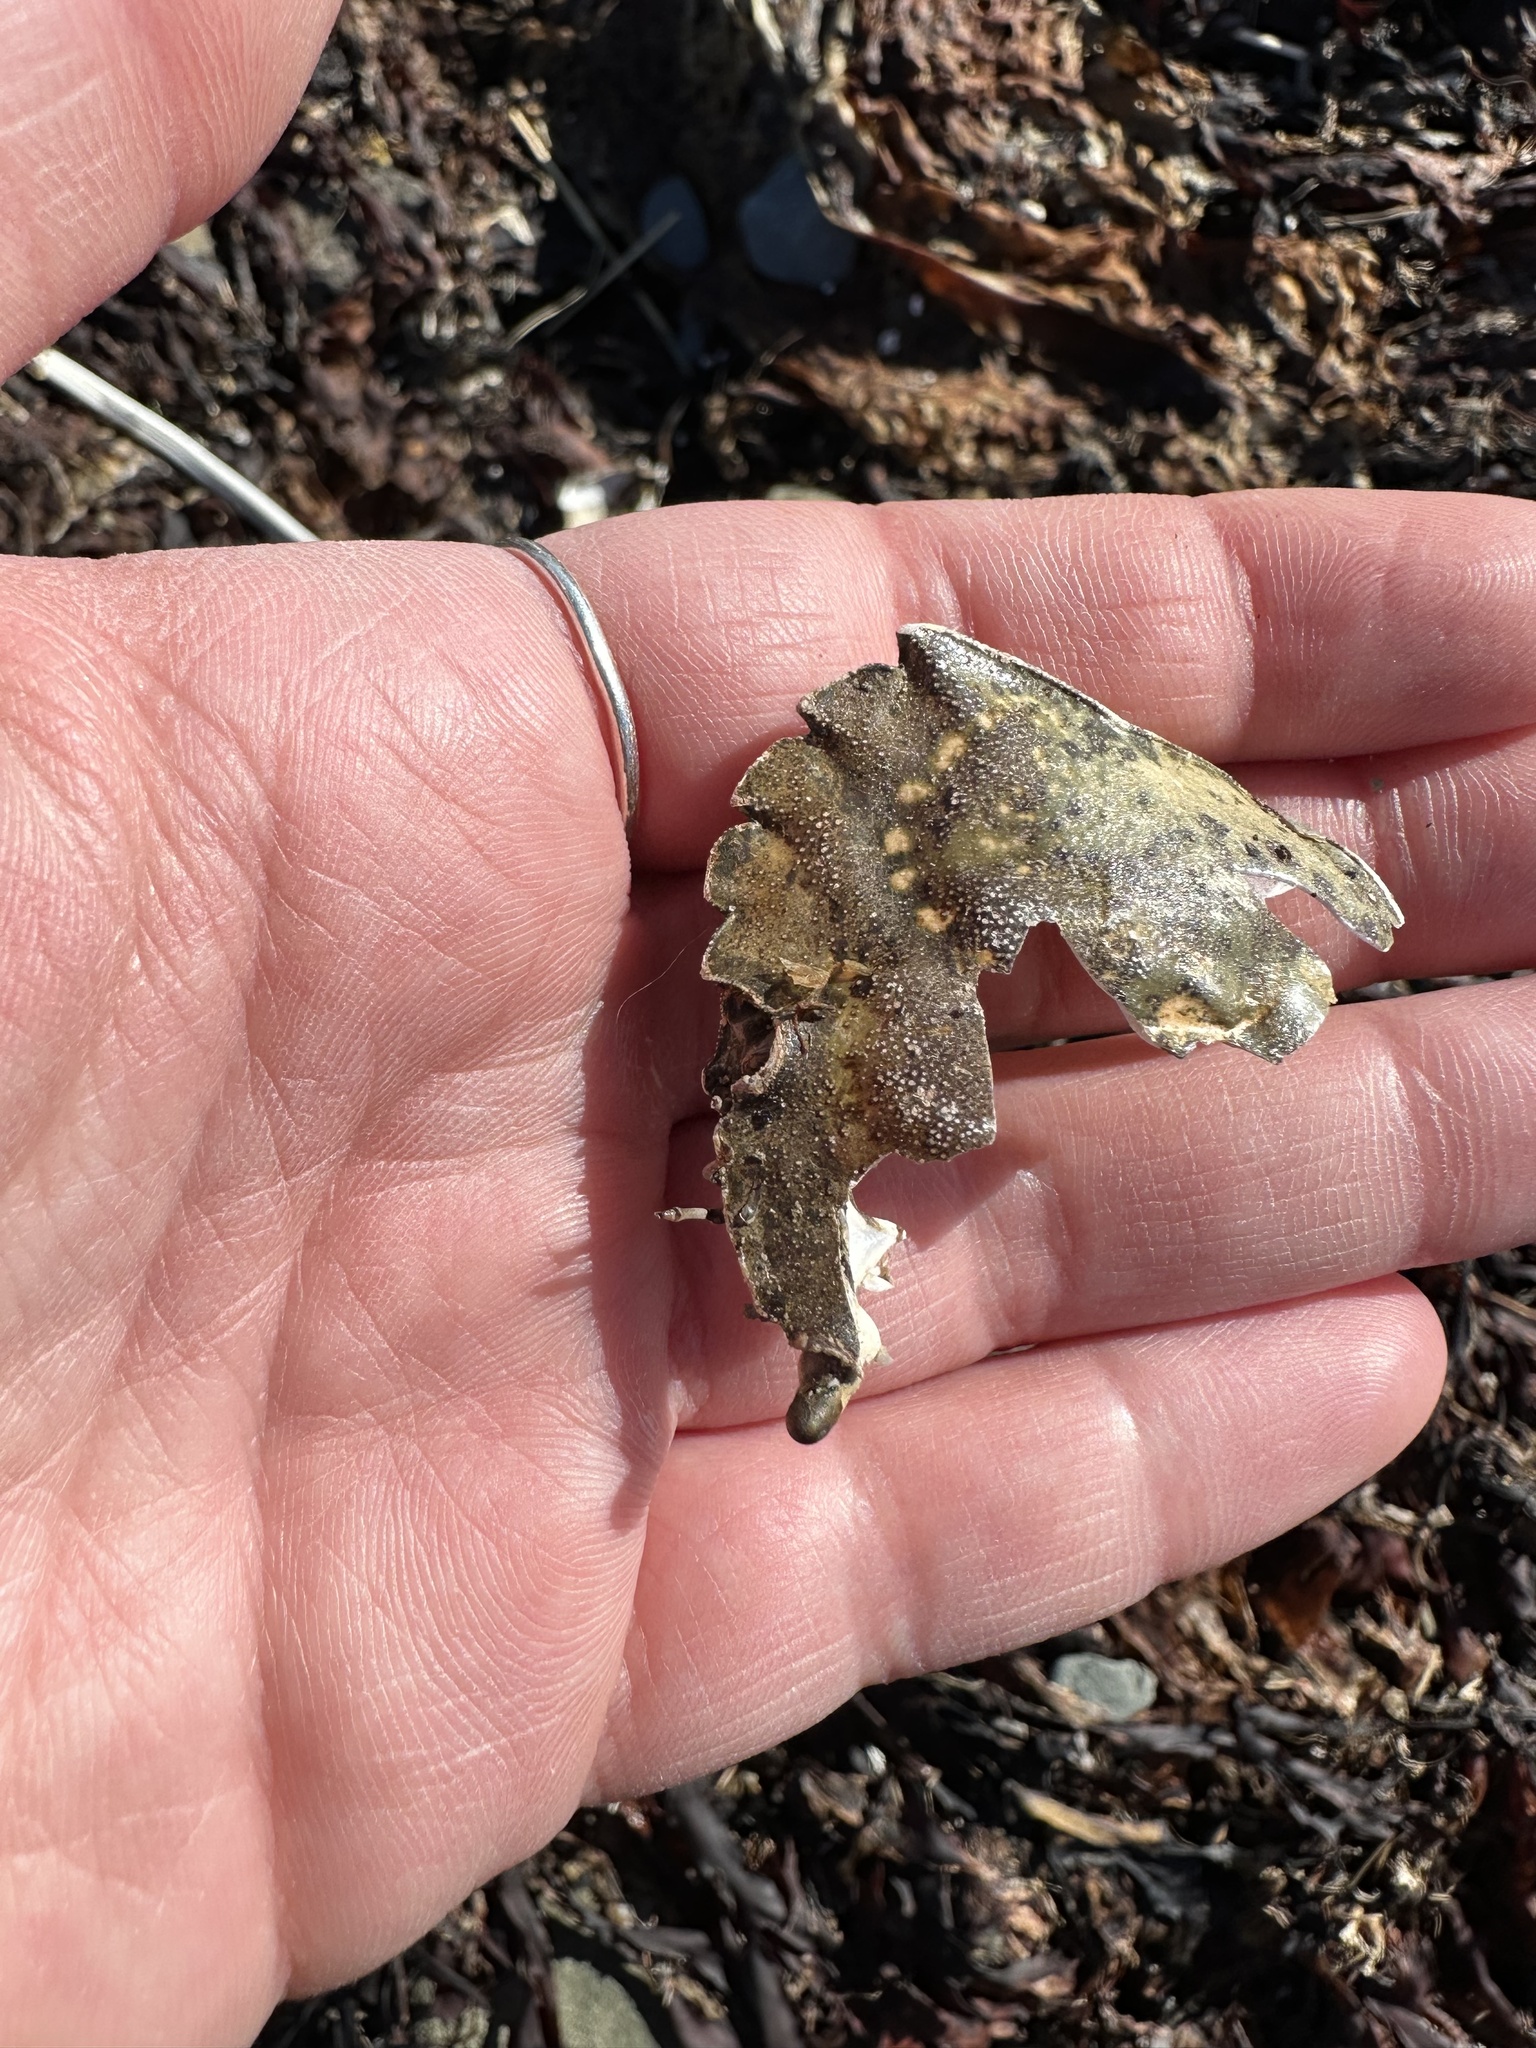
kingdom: Animalia
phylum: Arthropoda
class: Malacostraca
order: Decapoda
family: Carcinidae
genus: Carcinus
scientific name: Carcinus maenas
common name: European green crab
